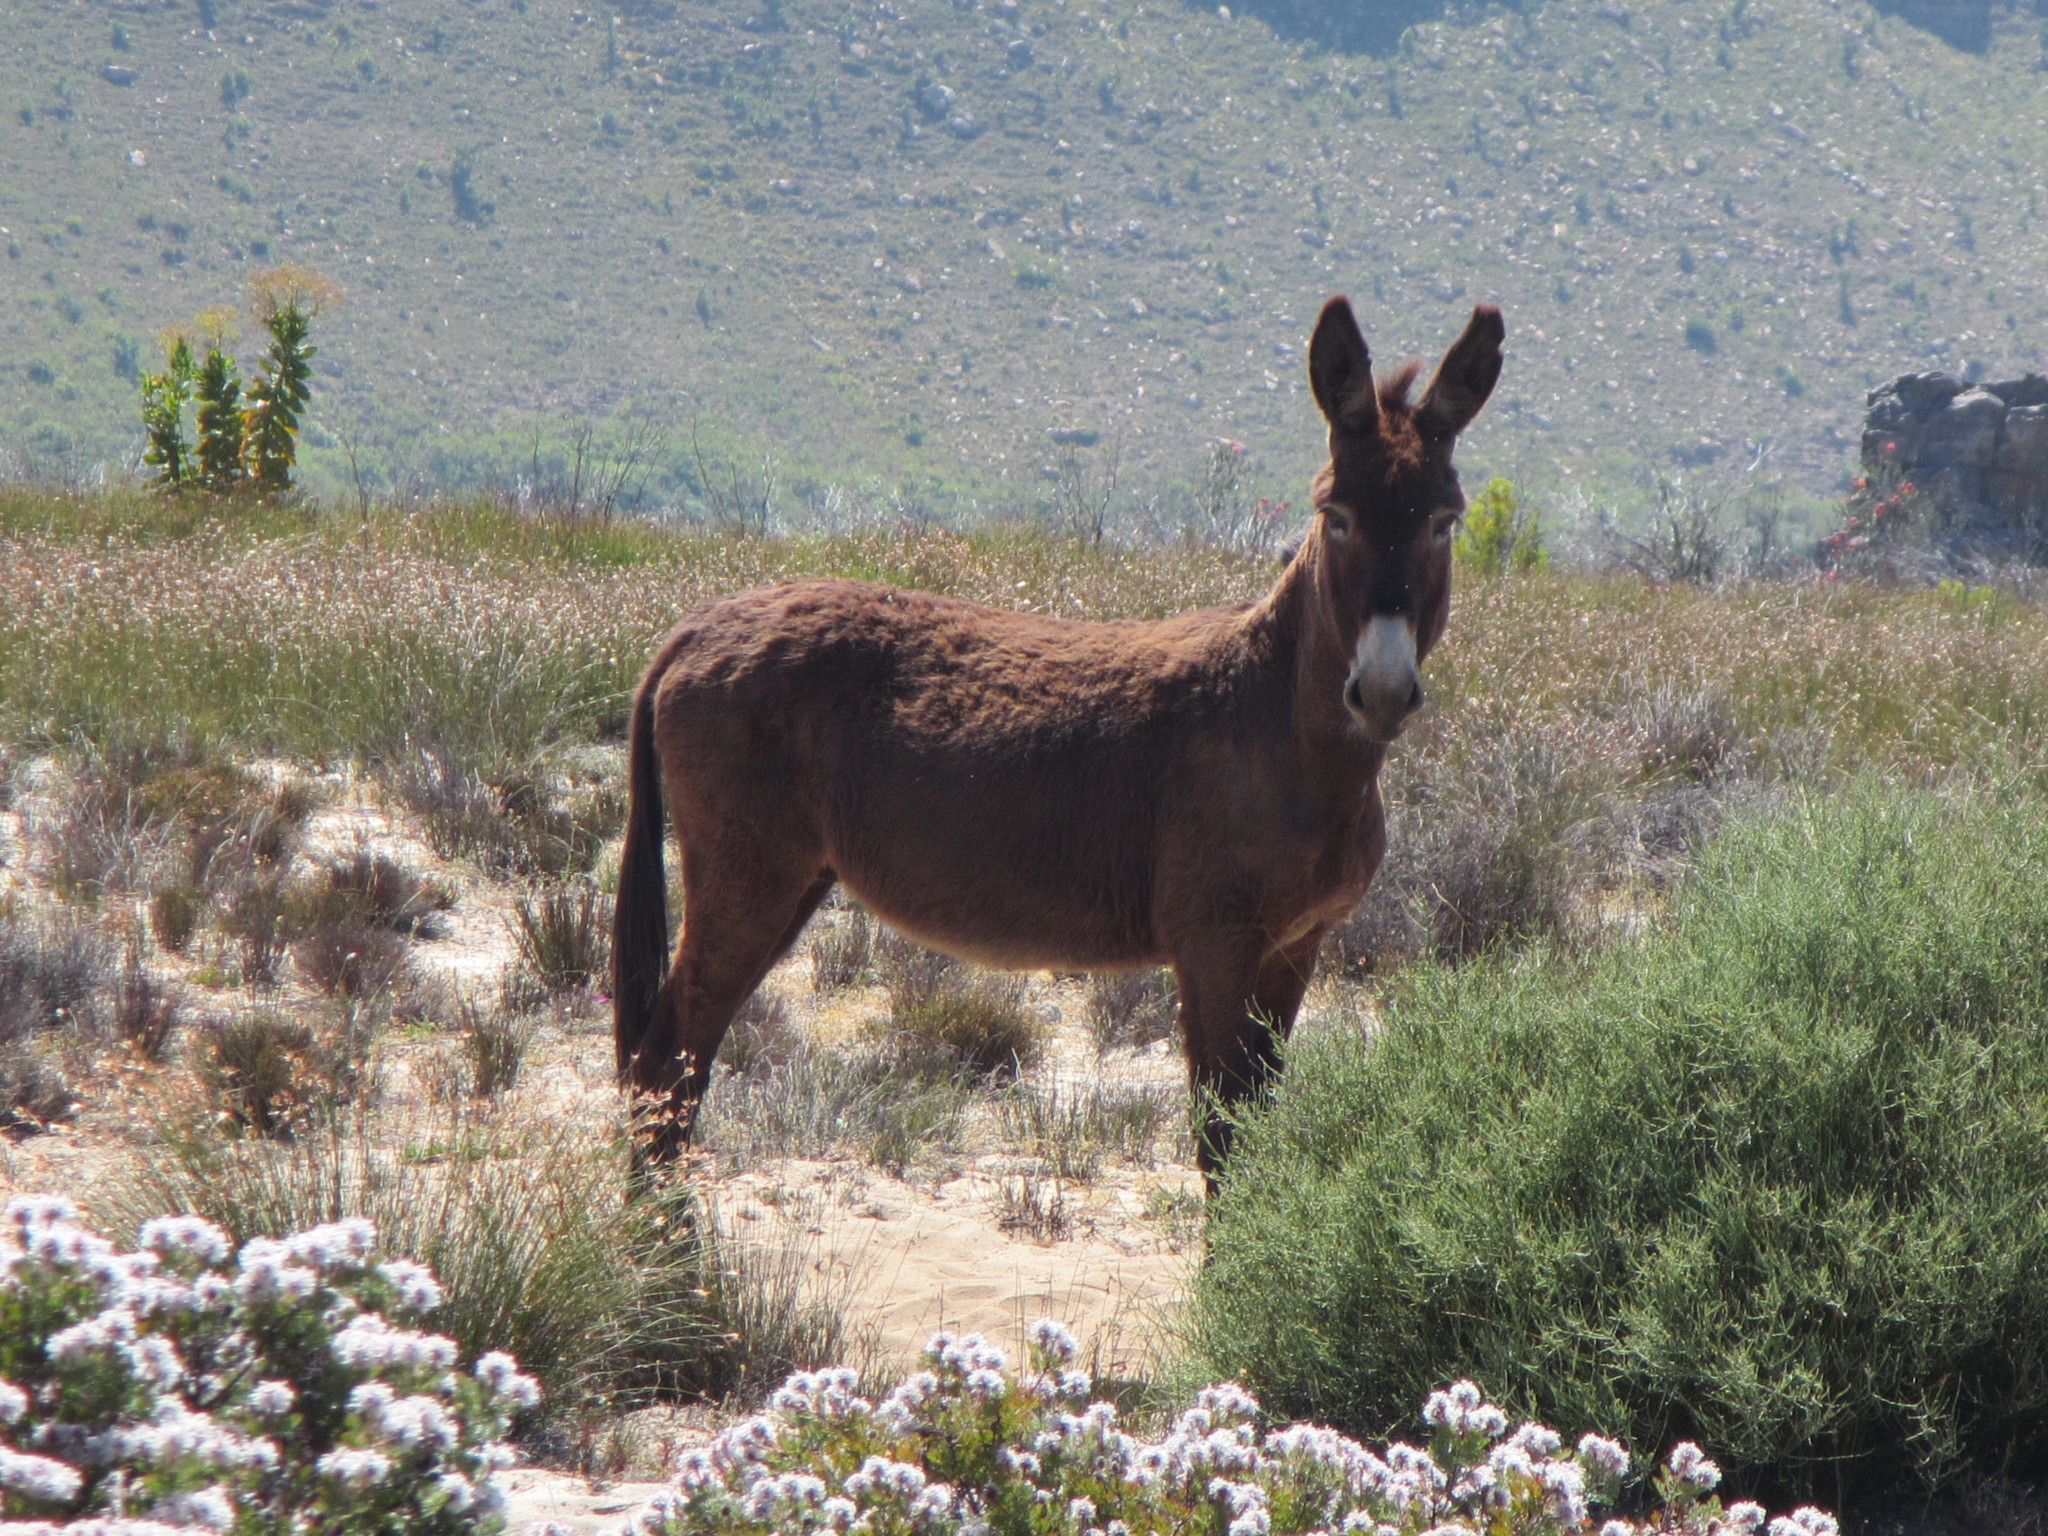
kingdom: Animalia
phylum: Chordata
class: Mammalia
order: Perissodactyla
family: Equidae
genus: Equus
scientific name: Equus asinus
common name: Ass
